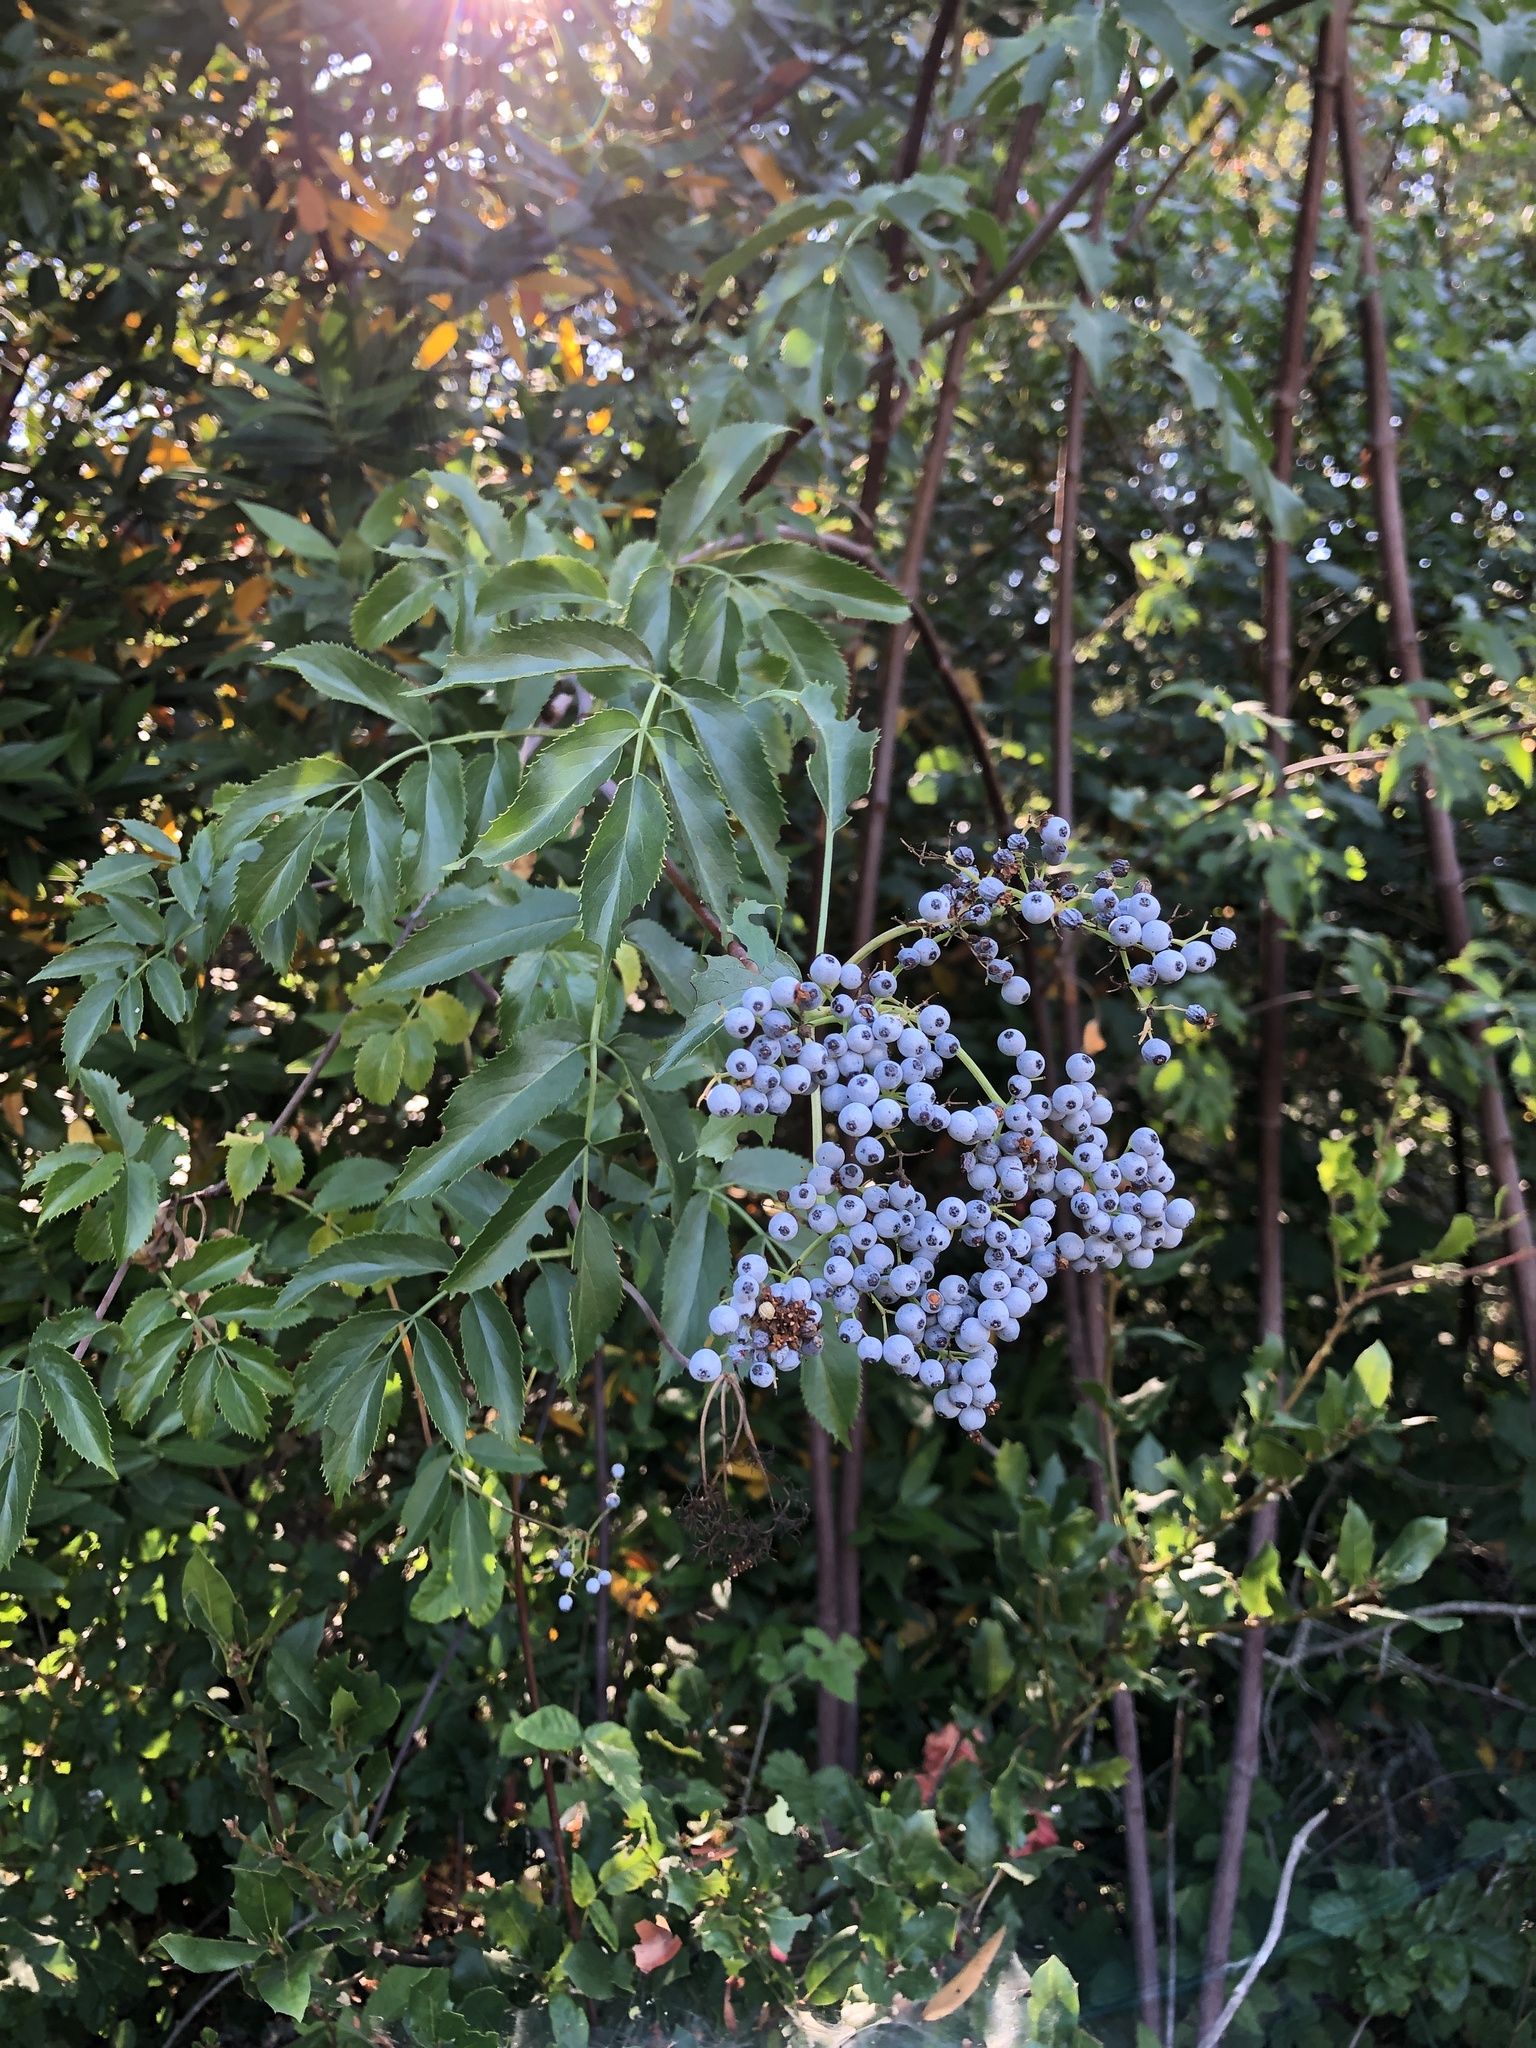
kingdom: Plantae
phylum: Tracheophyta
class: Magnoliopsida
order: Dipsacales
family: Viburnaceae
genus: Sambucus
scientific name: Sambucus cerulea
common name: Blue elder
